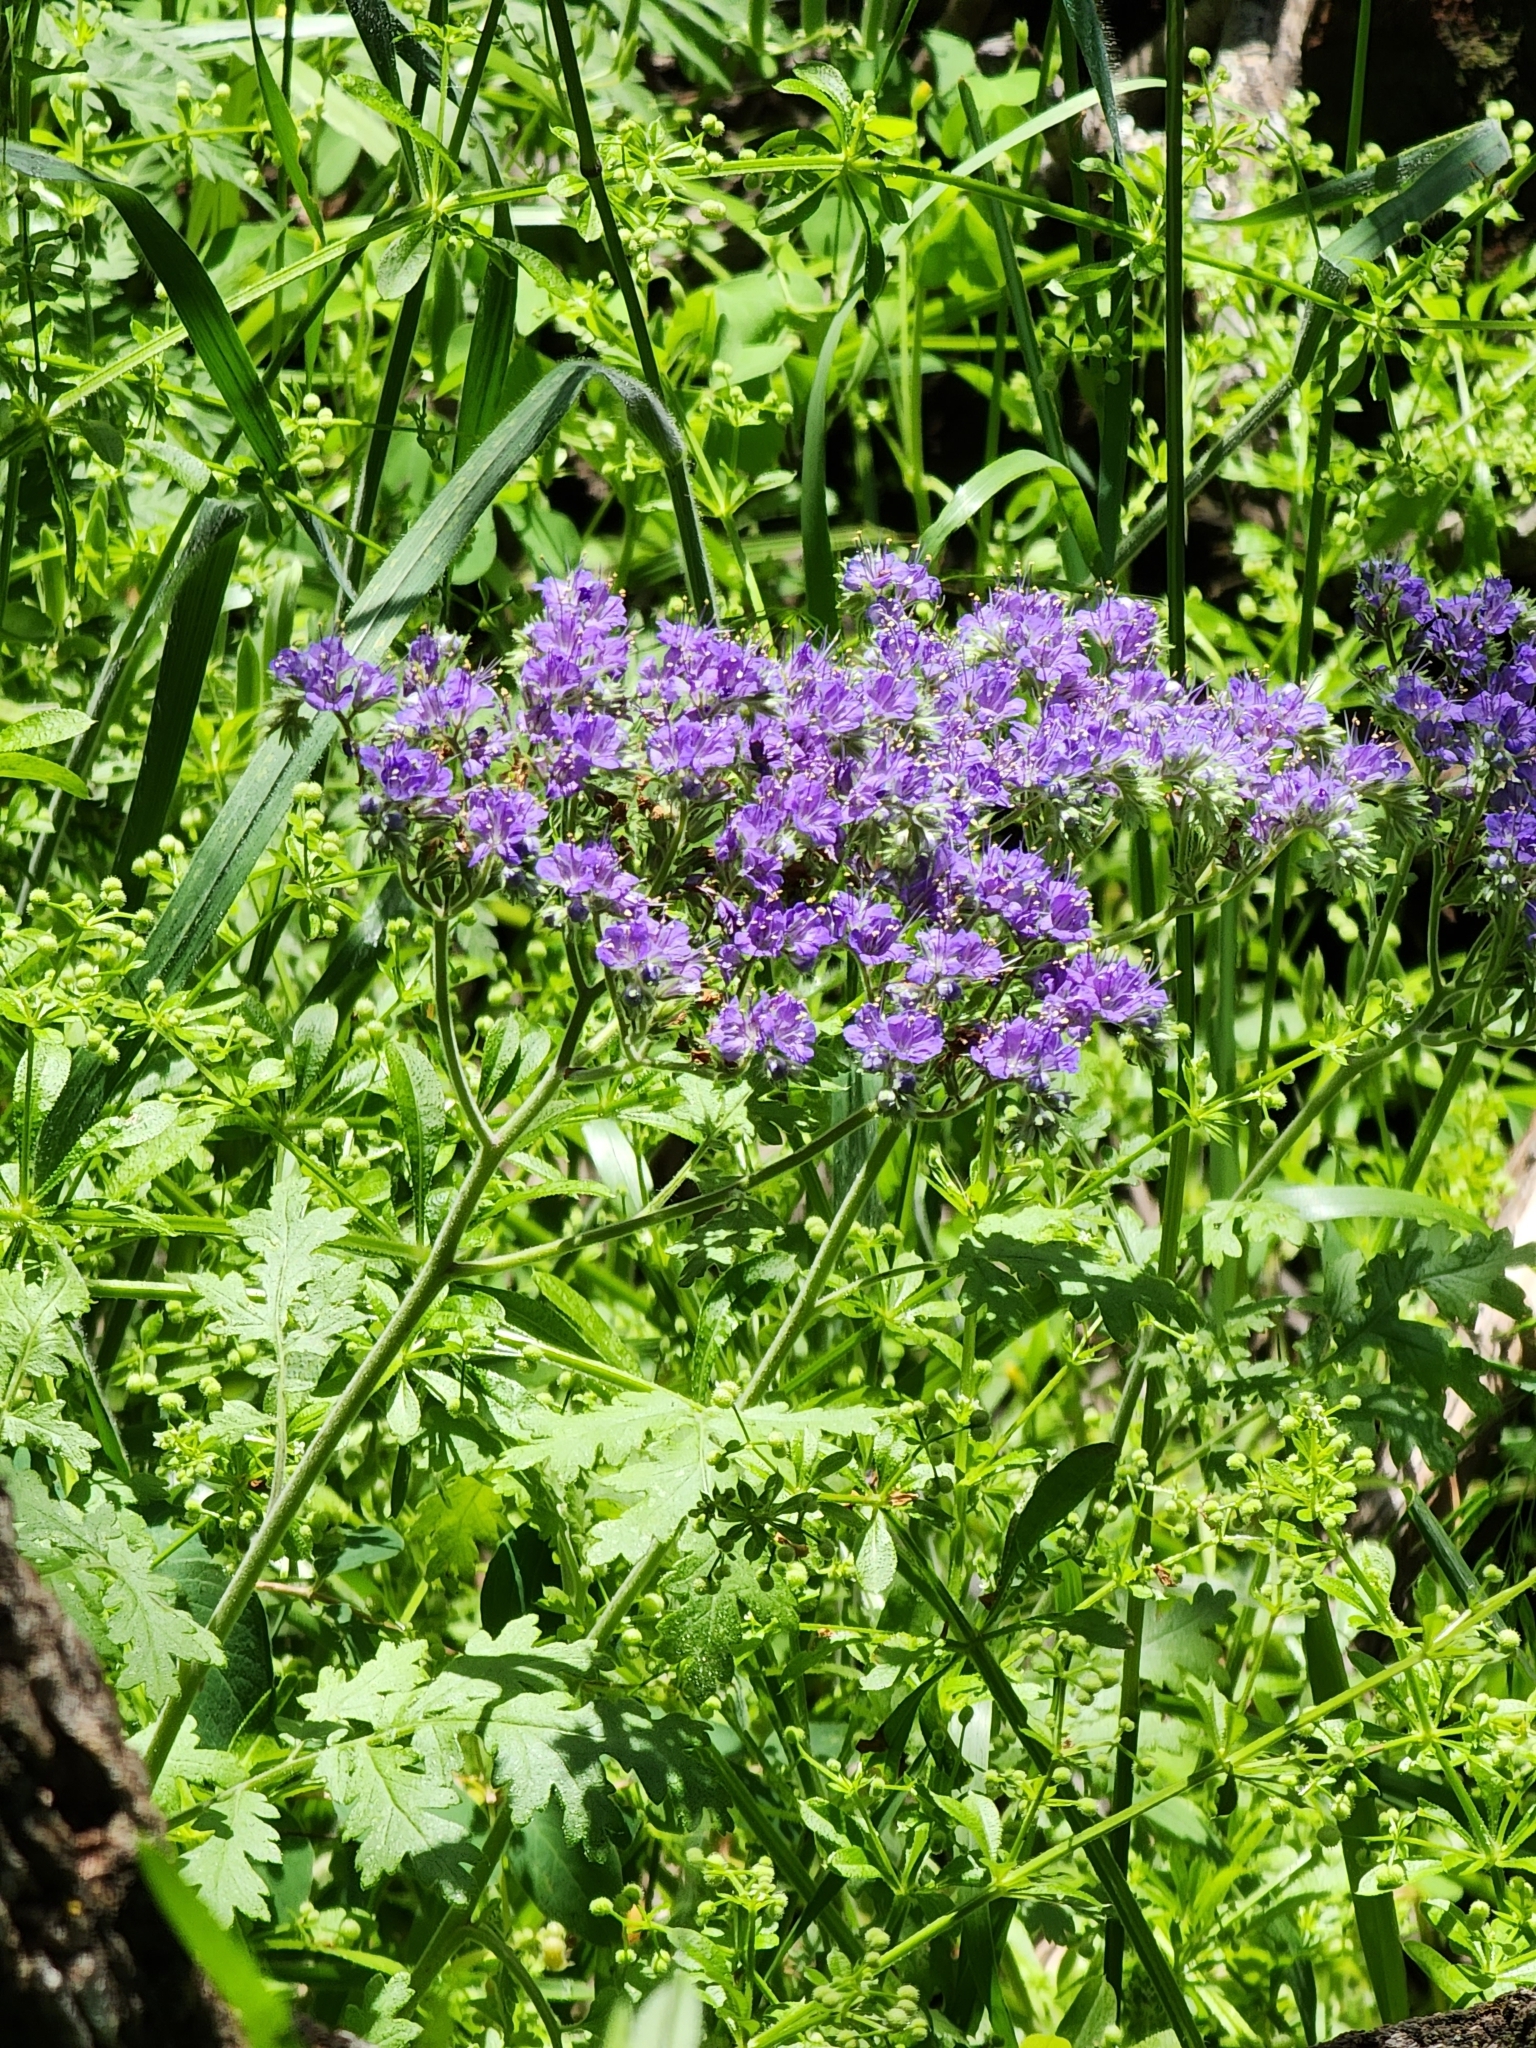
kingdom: Plantae
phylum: Tracheophyta
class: Magnoliopsida
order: Boraginales
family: Hydrophyllaceae
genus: Phacelia
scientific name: Phacelia congesta
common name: Blue curls
